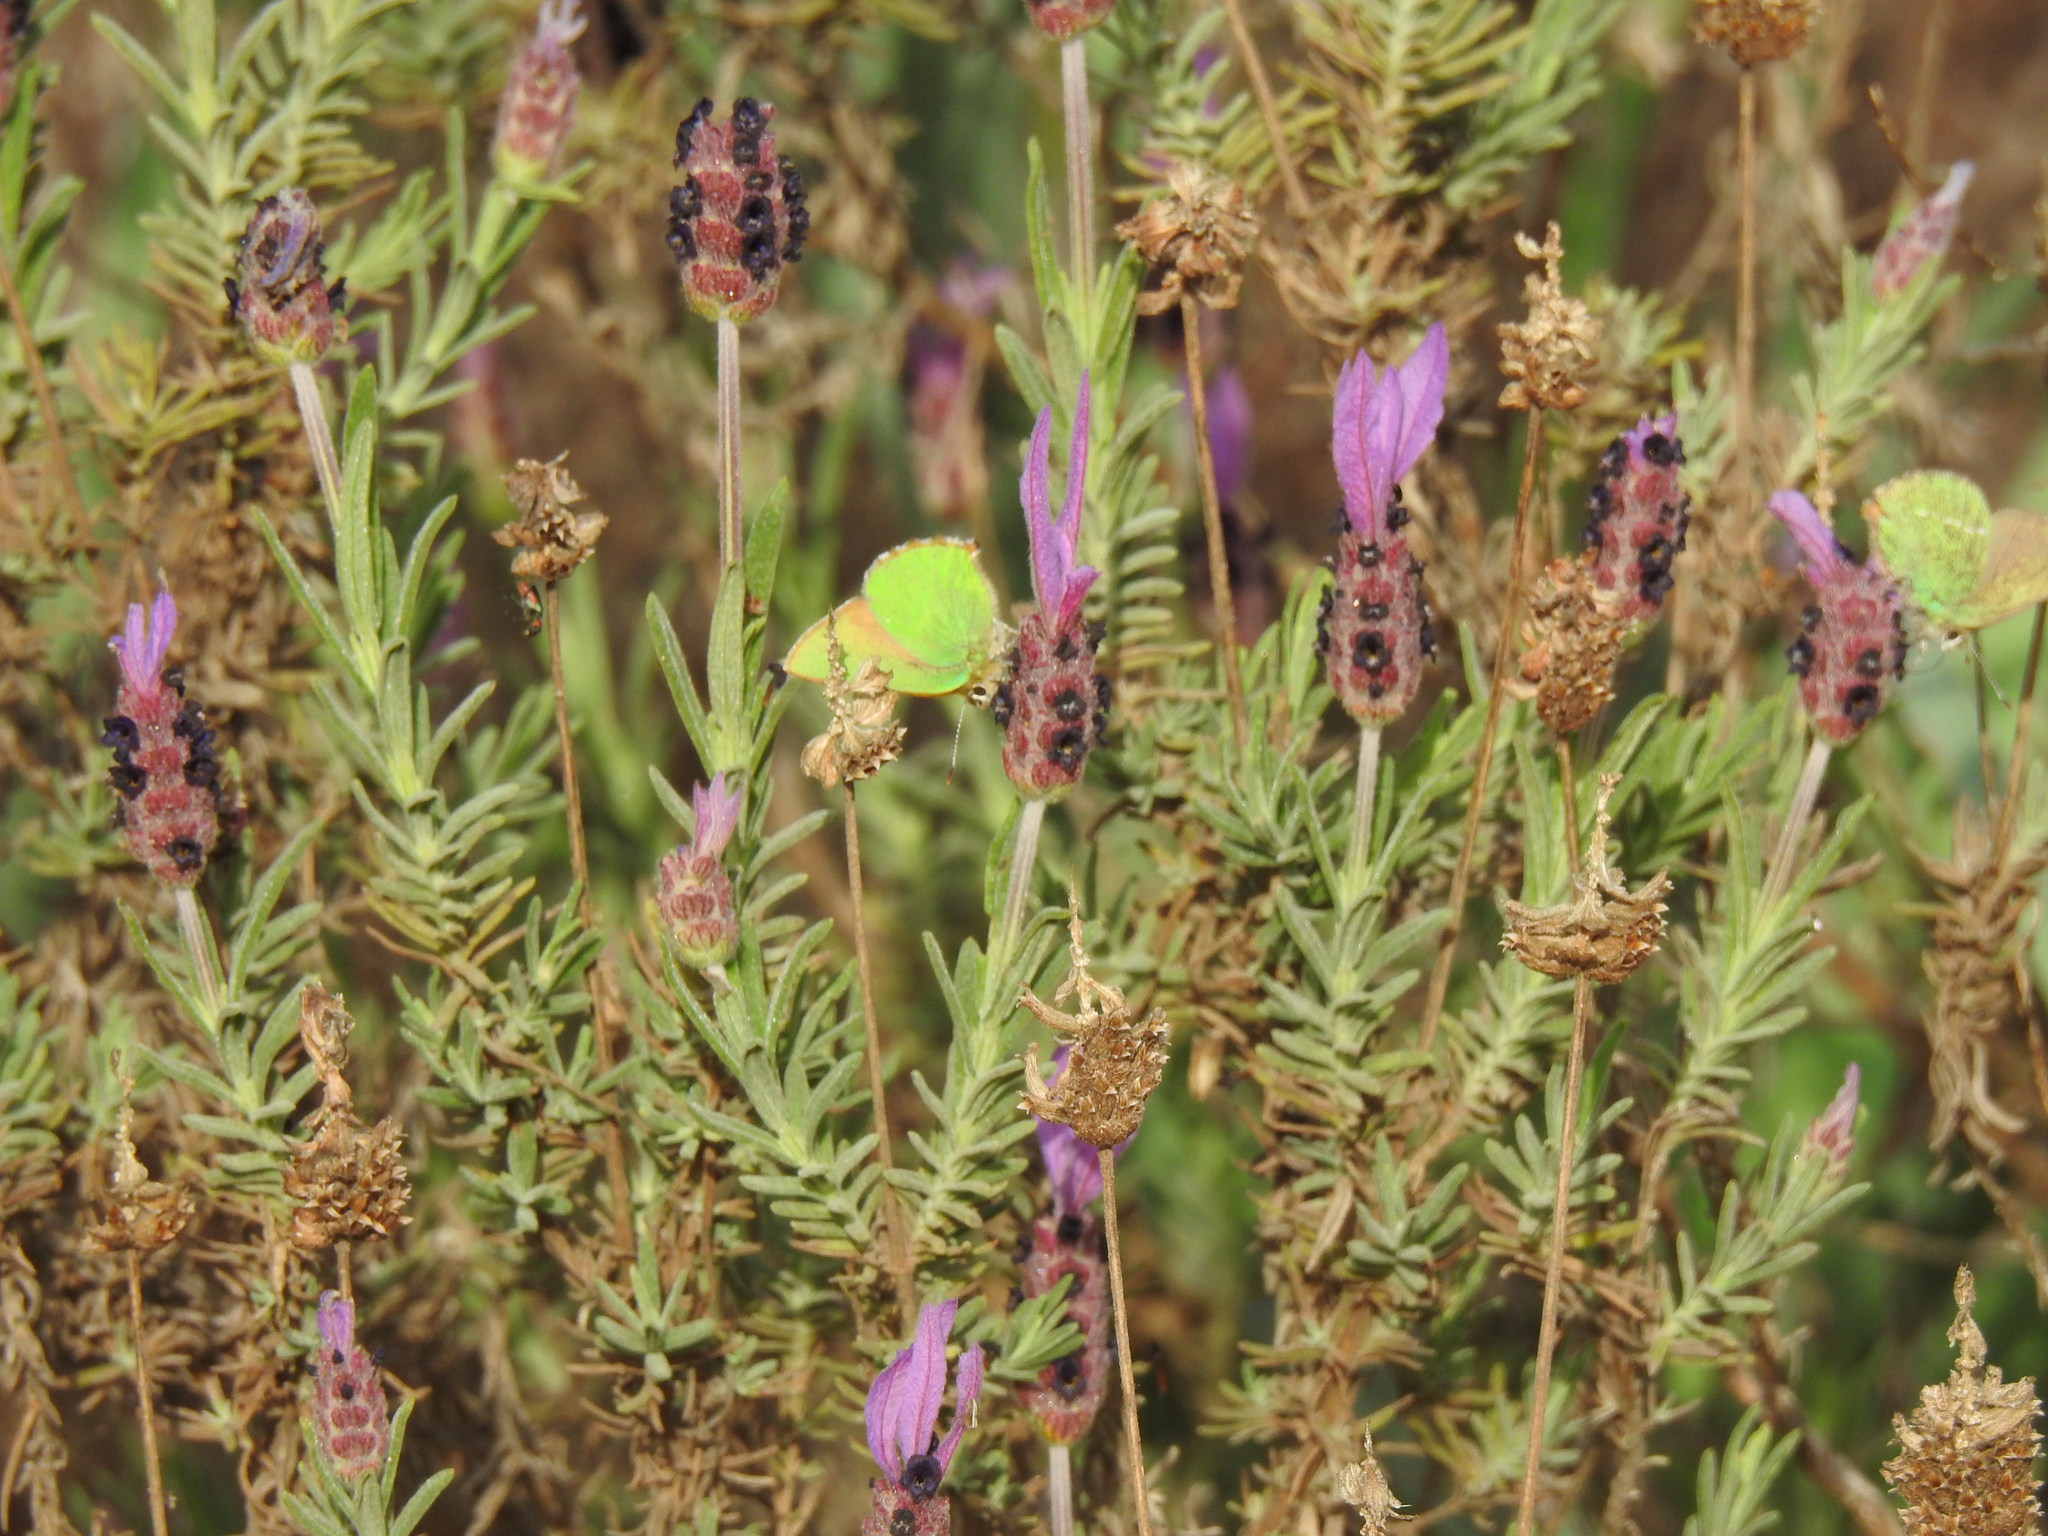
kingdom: Animalia
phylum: Arthropoda
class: Insecta
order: Lepidoptera
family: Lycaenidae
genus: Callophrys
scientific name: Callophrys rubi
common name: Green hairstreak
